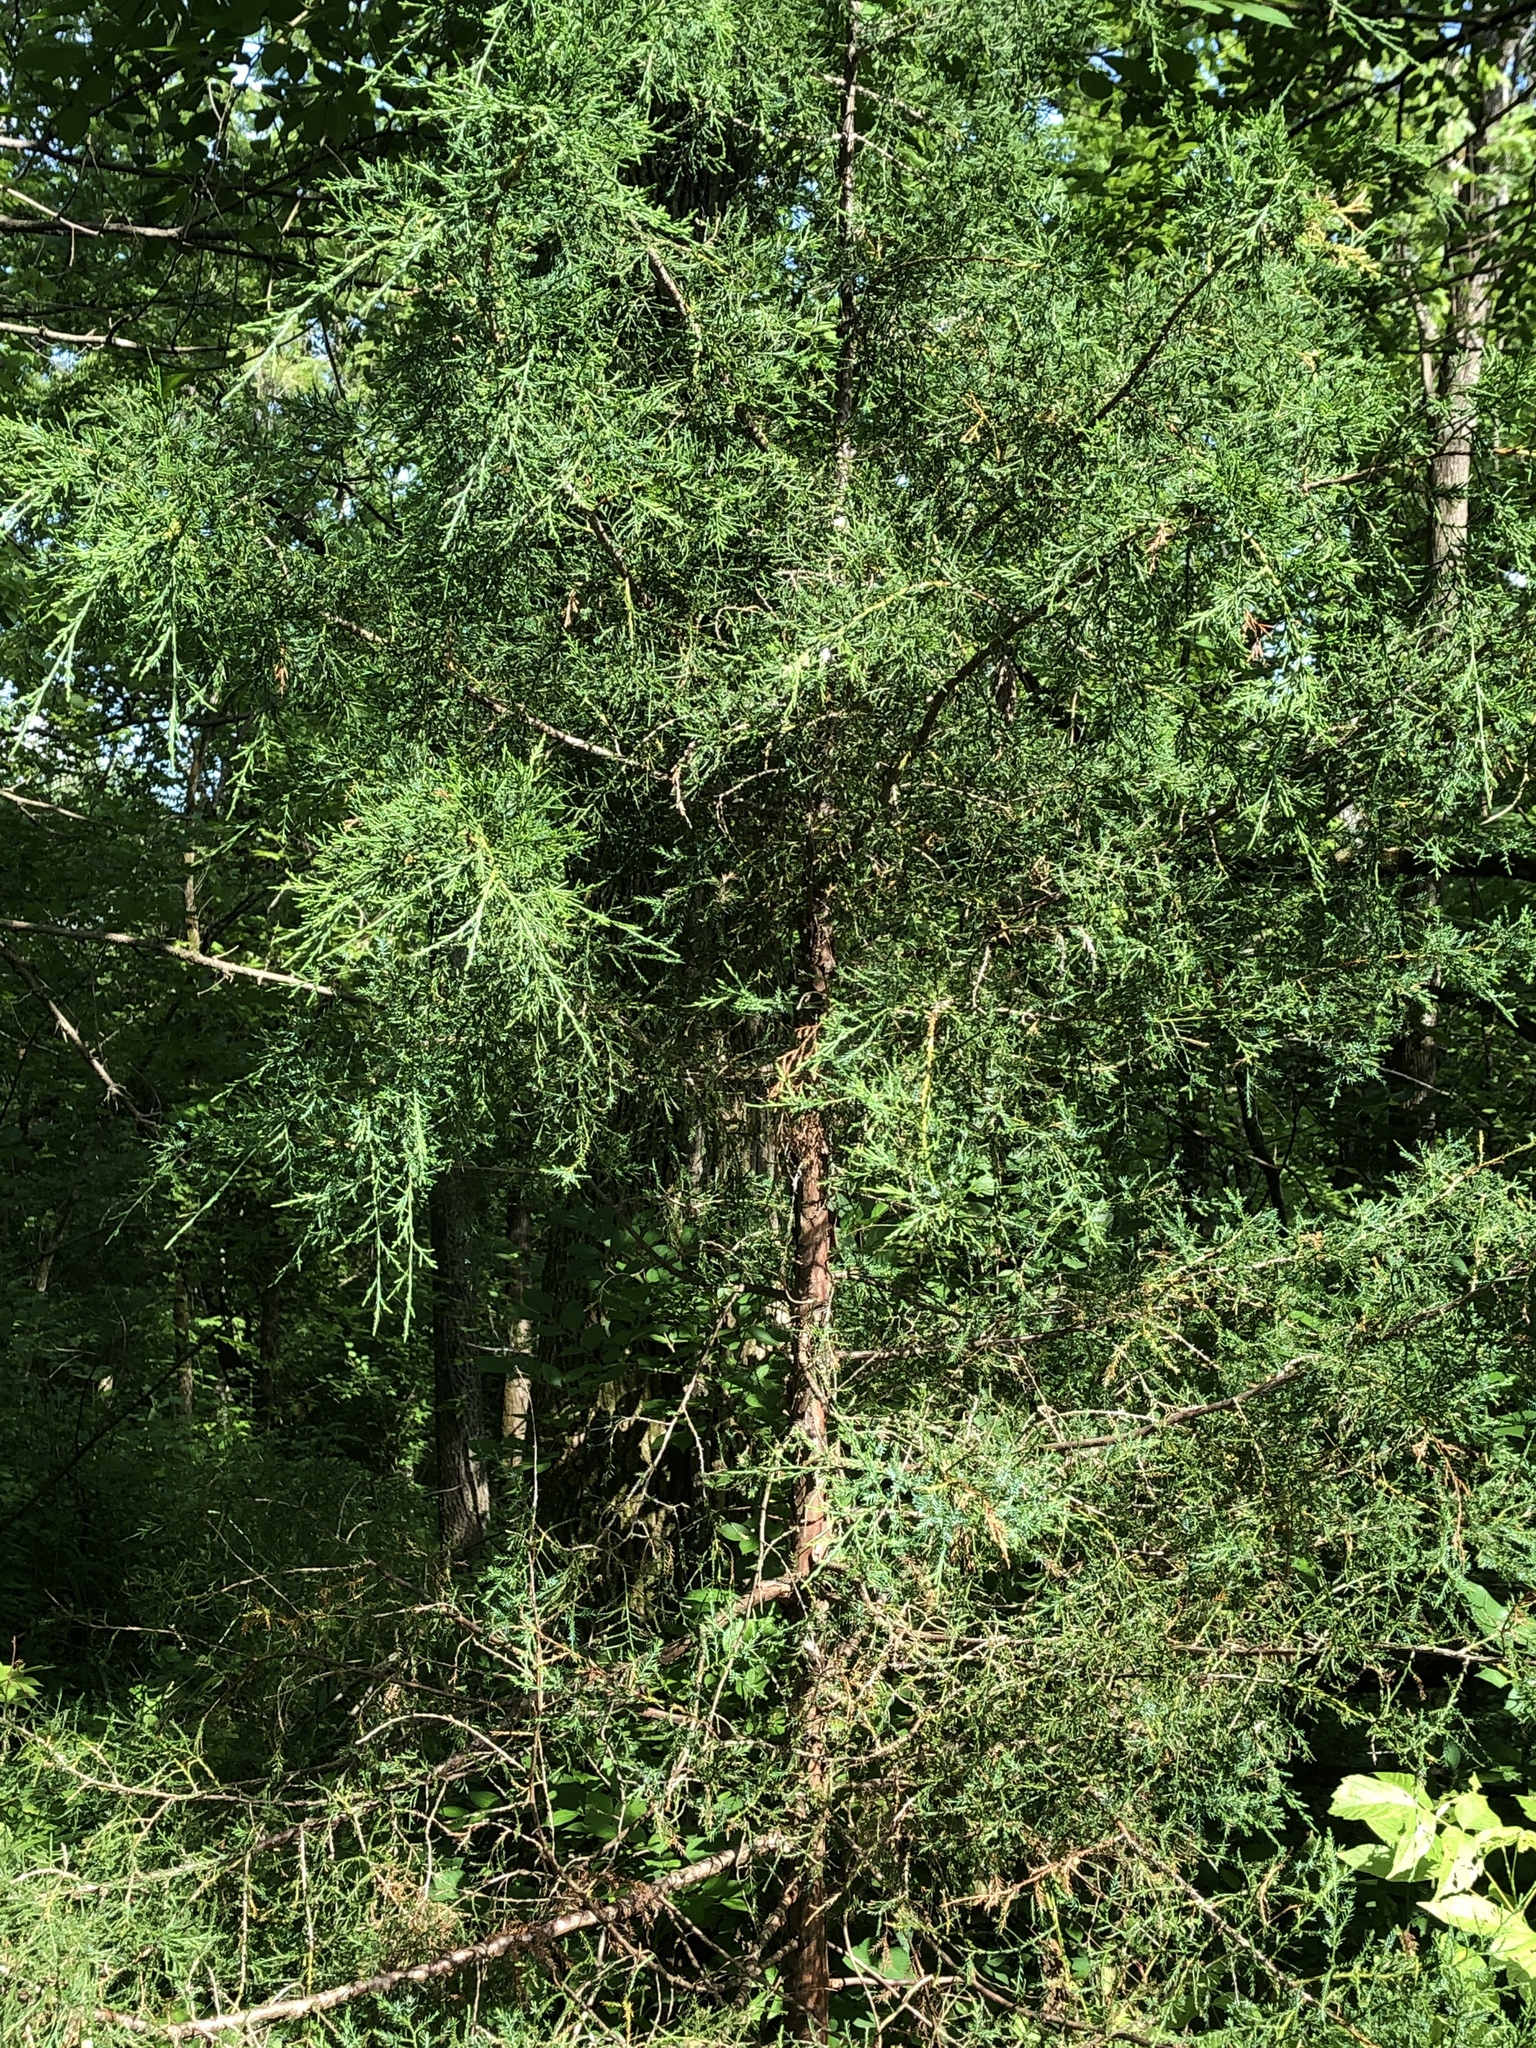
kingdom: Plantae
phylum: Tracheophyta
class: Pinopsida
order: Pinales
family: Cupressaceae
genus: Juniperus
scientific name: Juniperus virginiana
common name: Red juniper
